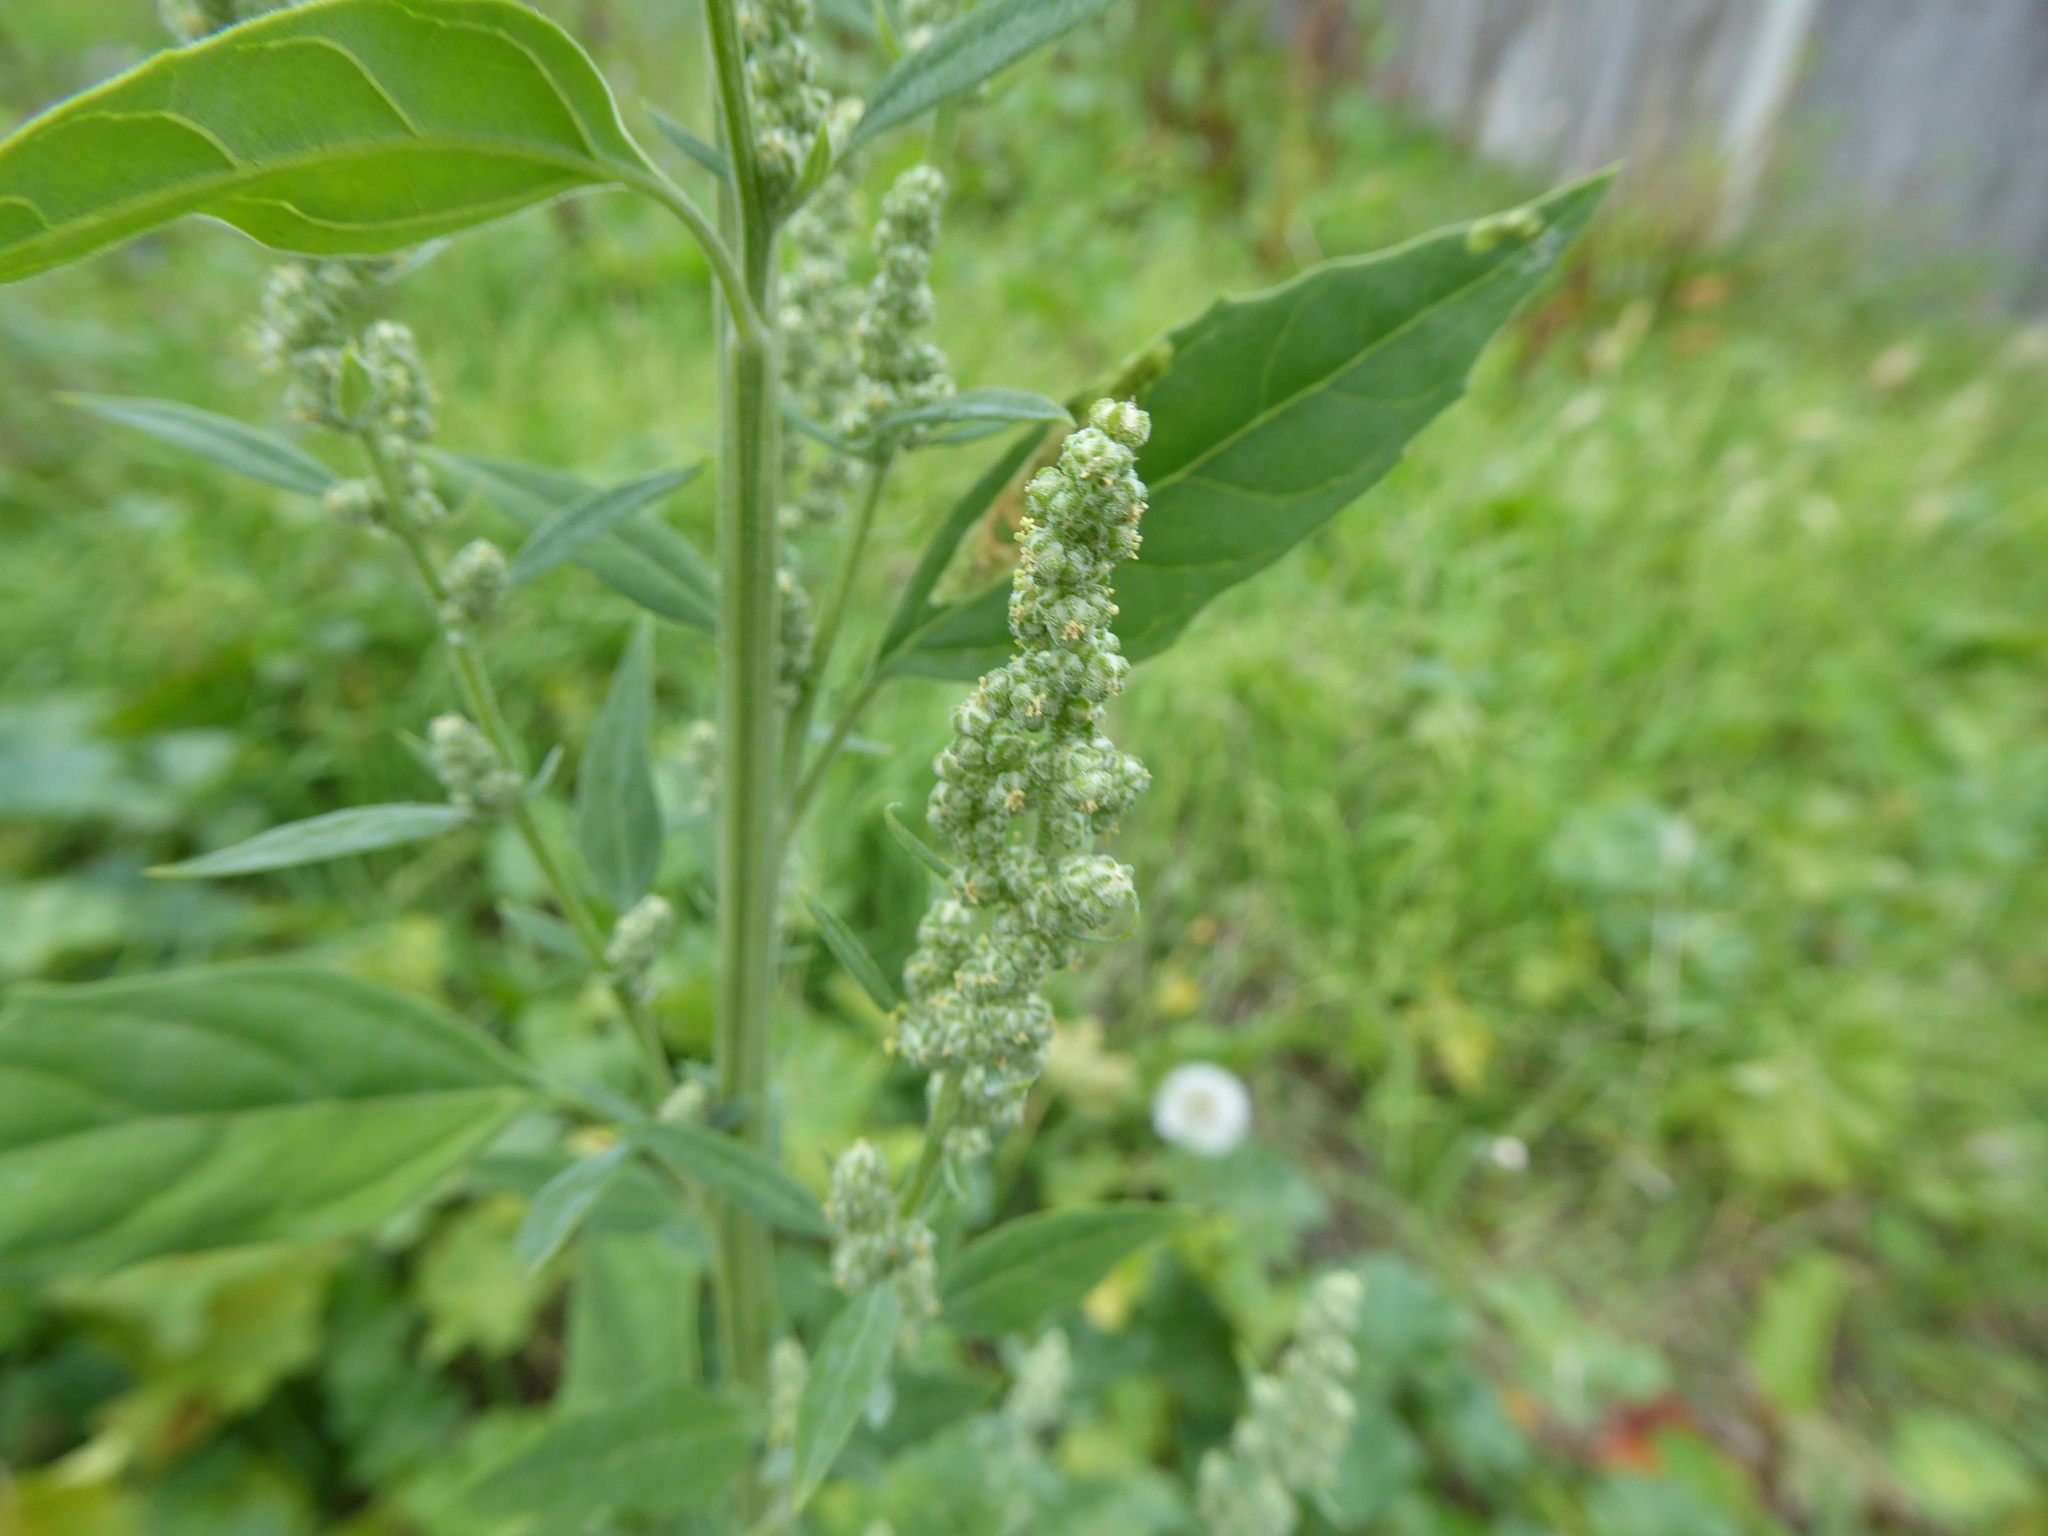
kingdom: Plantae
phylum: Tracheophyta
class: Magnoliopsida
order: Caryophyllales
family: Amaranthaceae
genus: Chenopodium
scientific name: Chenopodium album
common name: Fat-hen
